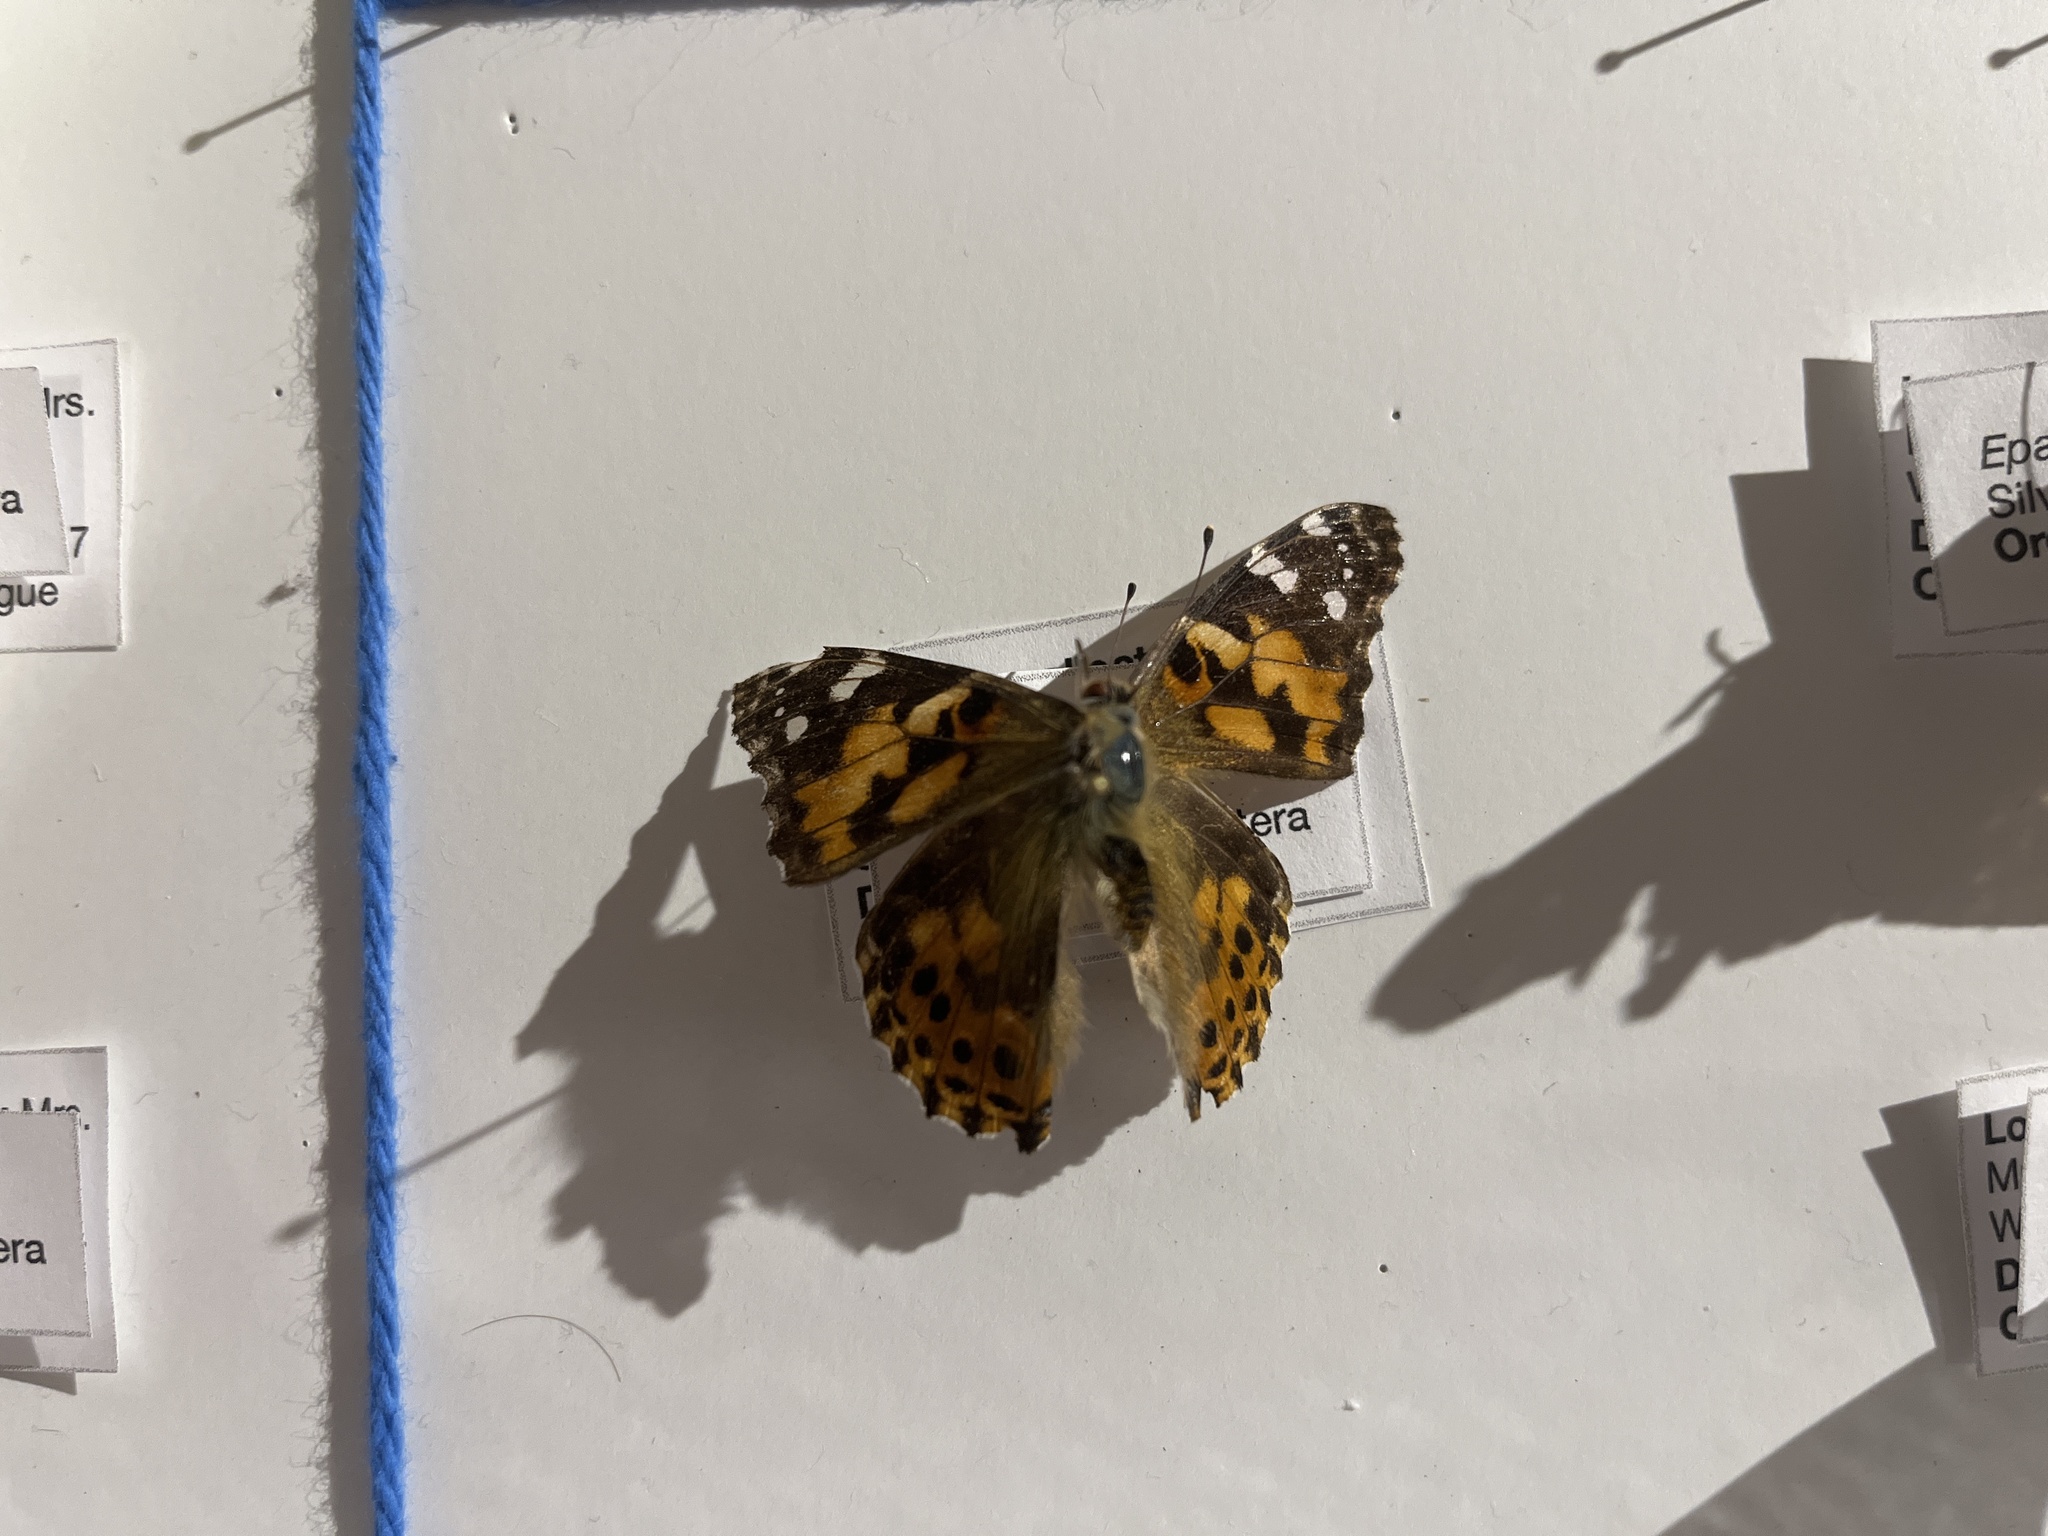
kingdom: Animalia
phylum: Arthropoda
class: Insecta
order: Lepidoptera
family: Nymphalidae
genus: Vanessa
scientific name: Vanessa cardui
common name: Painted lady
